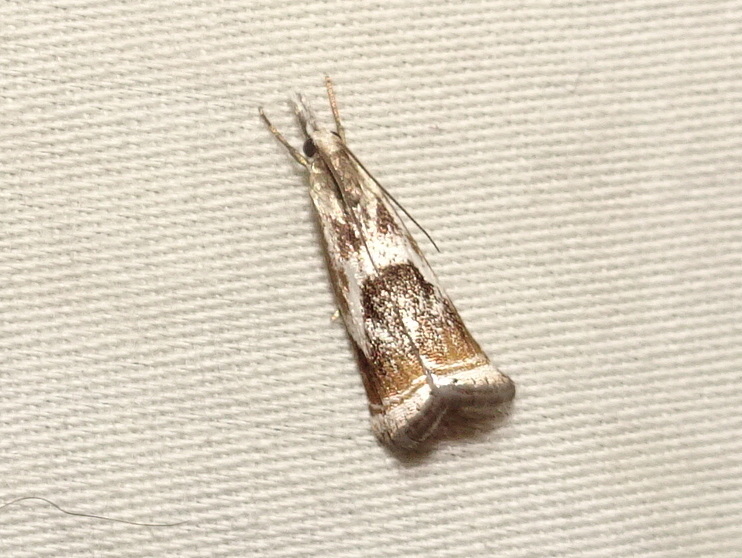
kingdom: Animalia
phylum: Arthropoda
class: Insecta
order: Lepidoptera
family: Crambidae
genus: Microcrambus
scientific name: Microcrambus elegans
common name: Elegant grass-veneer
